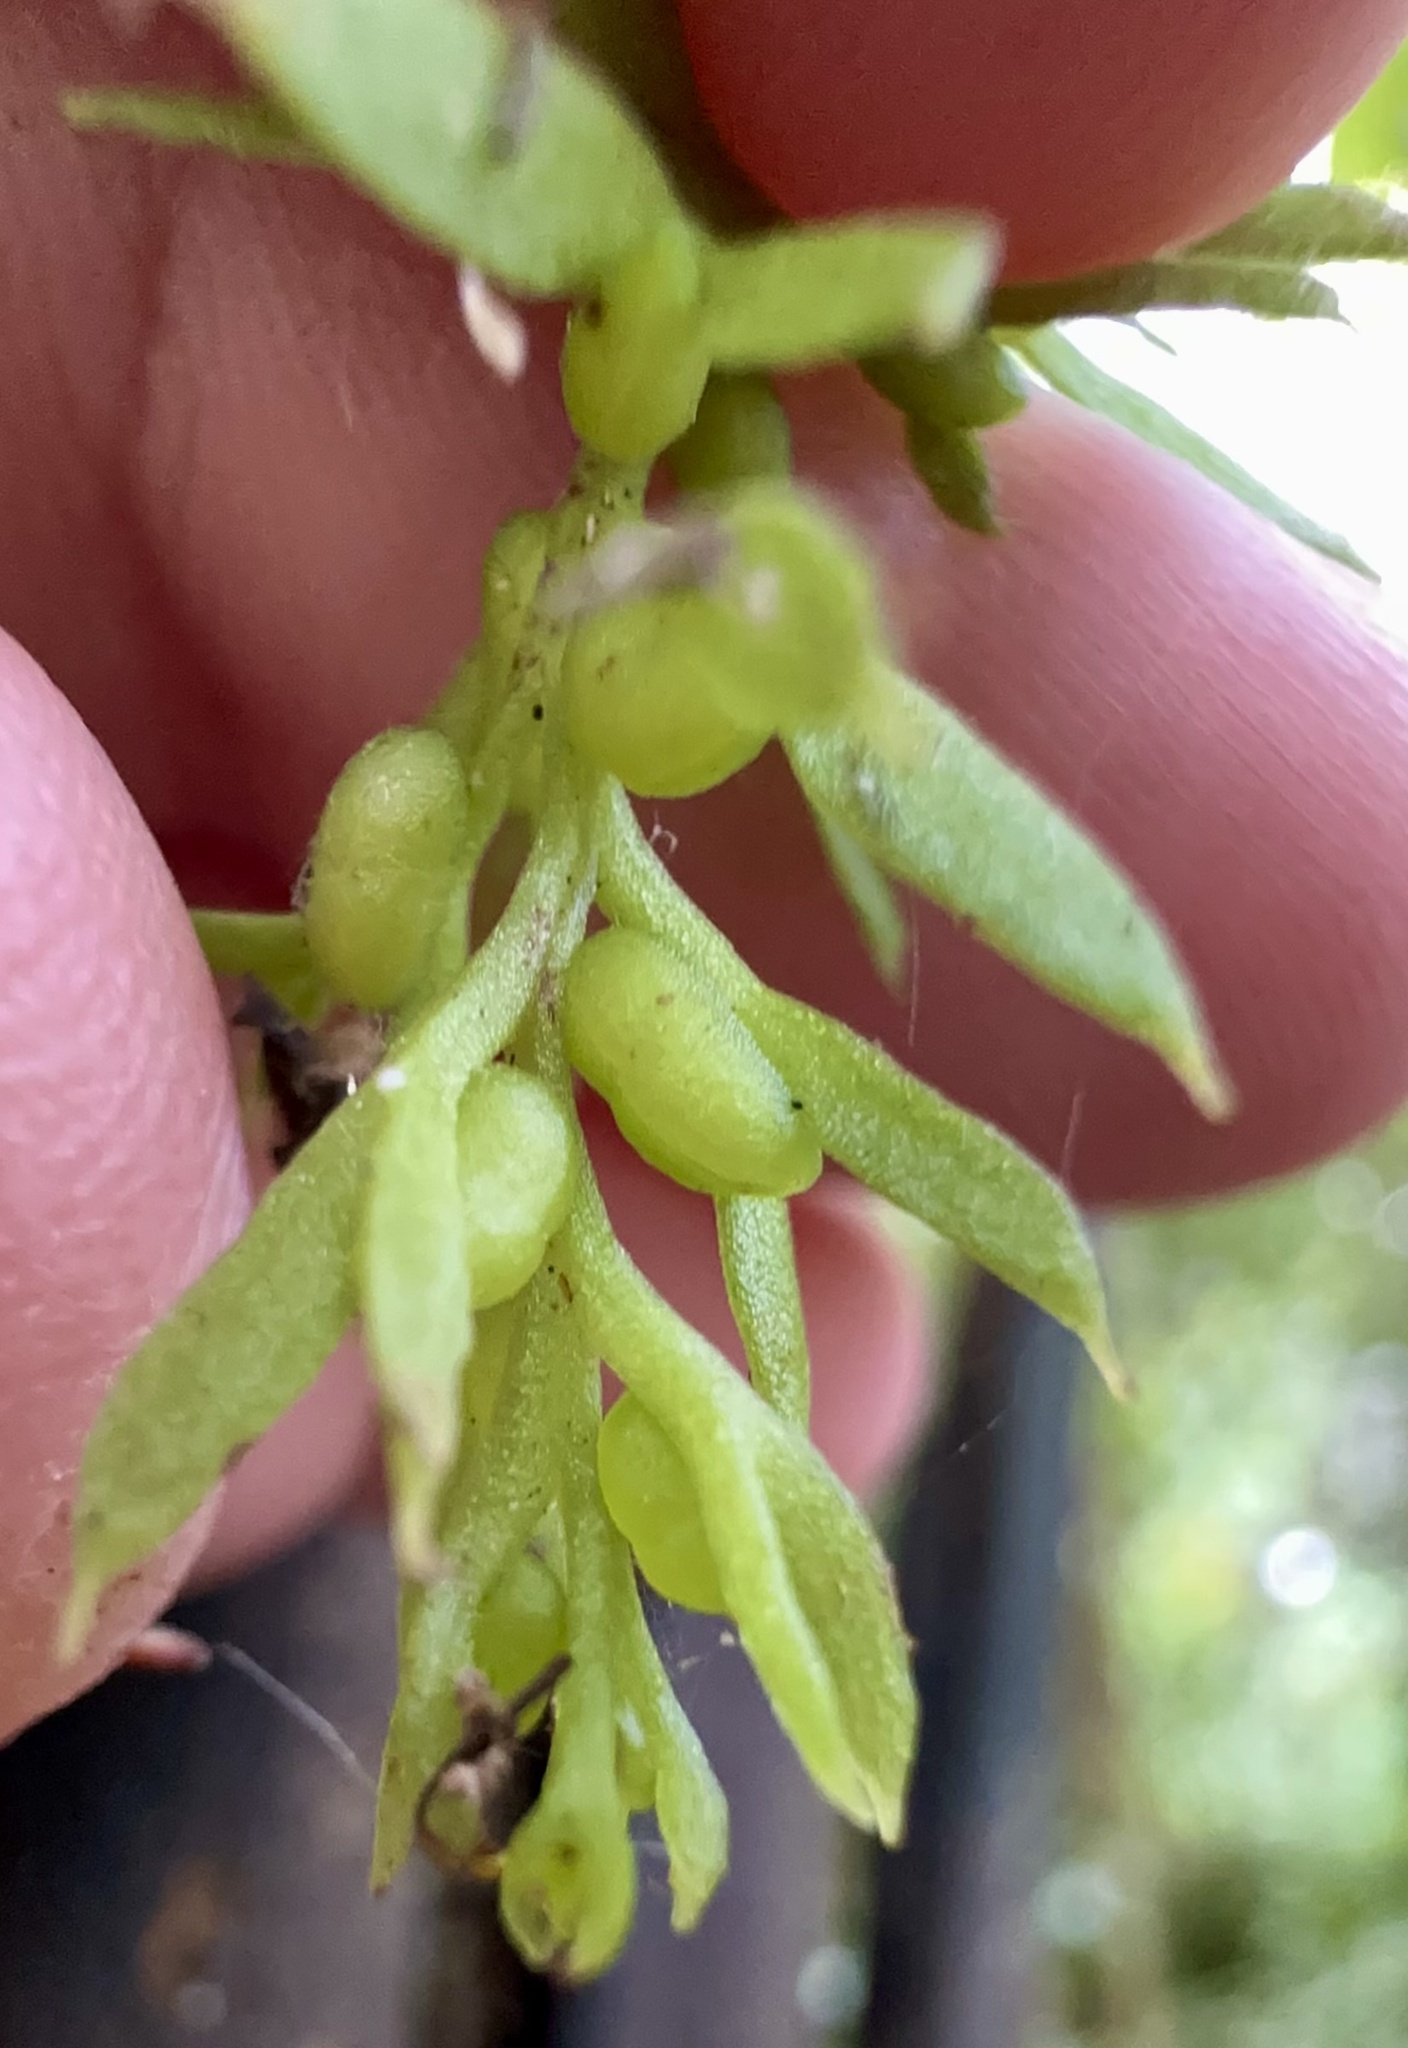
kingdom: Plantae
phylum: Tracheophyta
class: Polypodiopsida
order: Psilotales
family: Psilotaceae
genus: Tmesipteris
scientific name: Tmesipteris elongata
